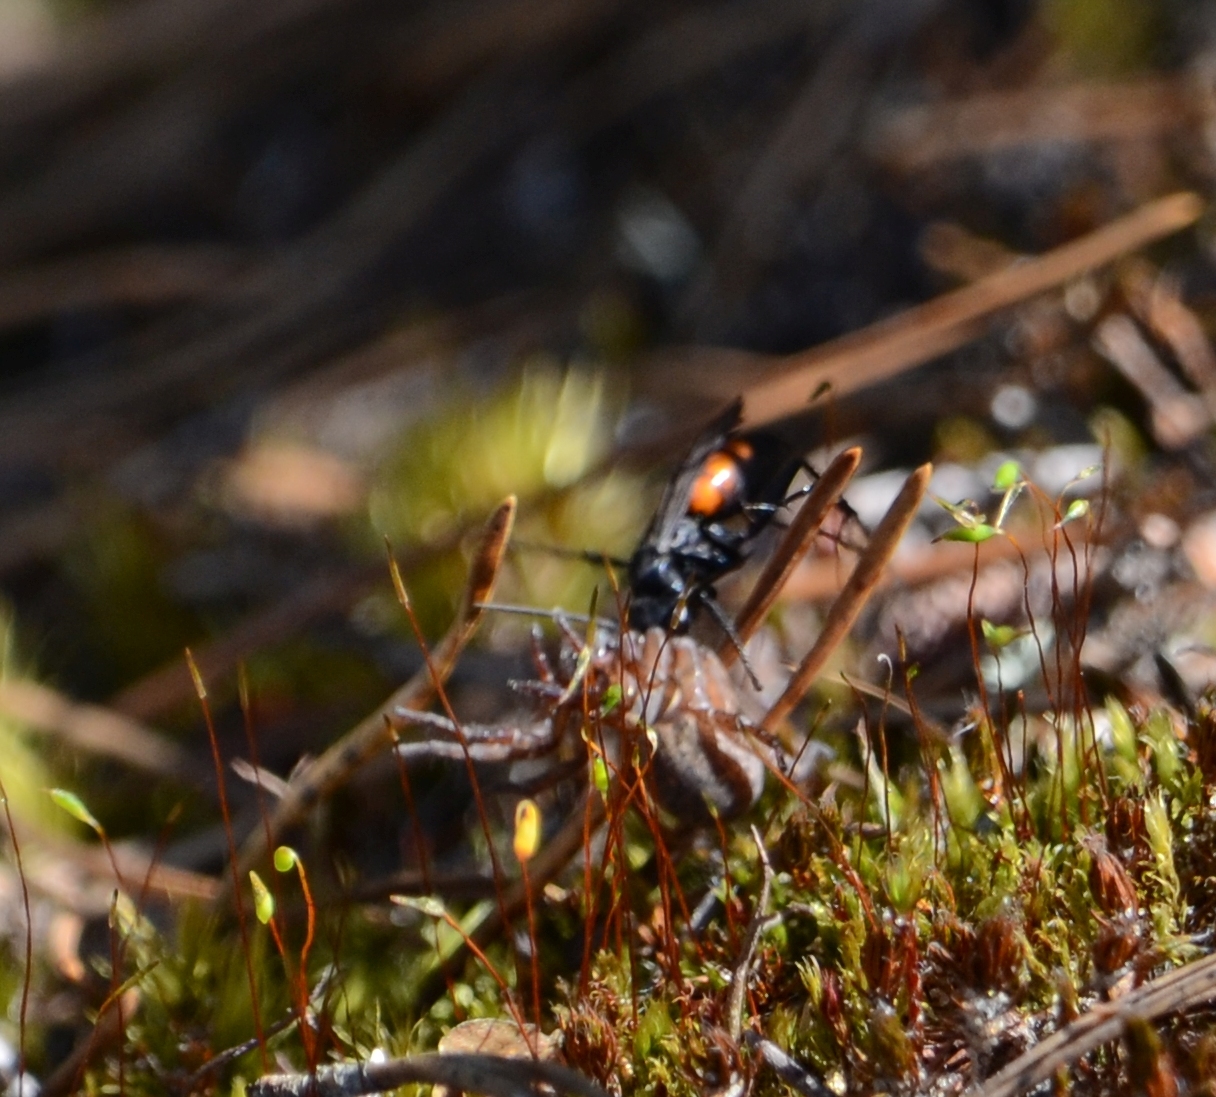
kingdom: Animalia
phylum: Arthropoda
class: Insecta
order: Hymenoptera
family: Pompilidae
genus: Anoplius
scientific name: Anoplius viaticus
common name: Black banded spider wasp
